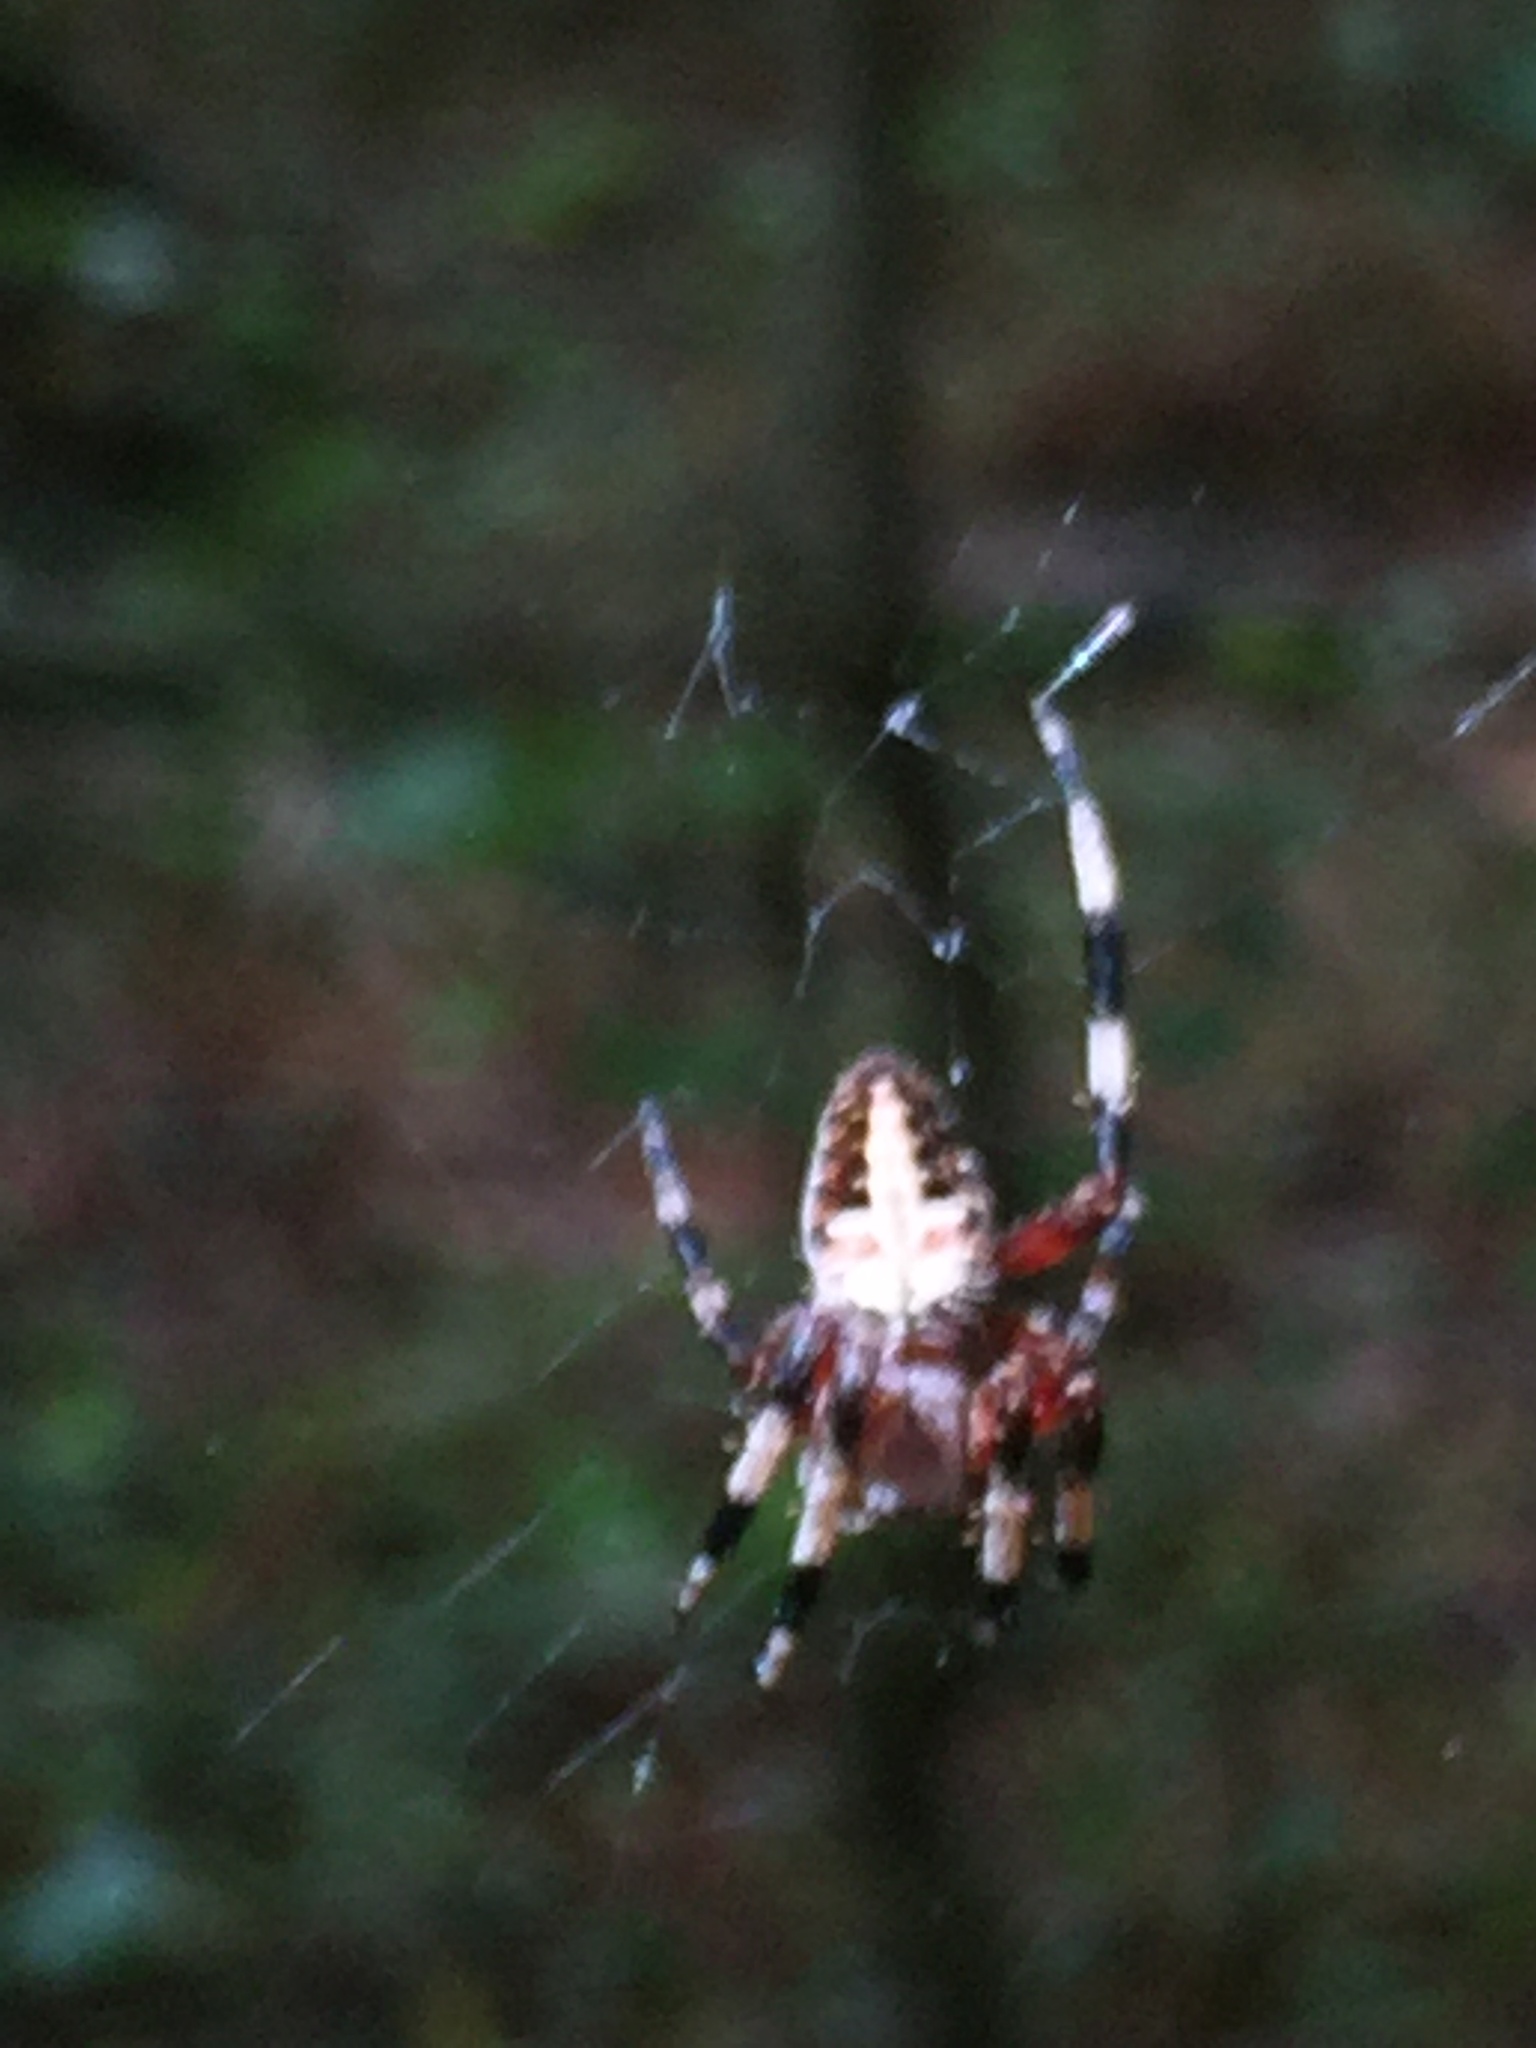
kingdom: Animalia
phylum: Arthropoda
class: Arachnida
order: Araneae
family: Araneidae
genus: Neoscona
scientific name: Neoscona domiciliorum
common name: Red-femured spotted orbweaver
